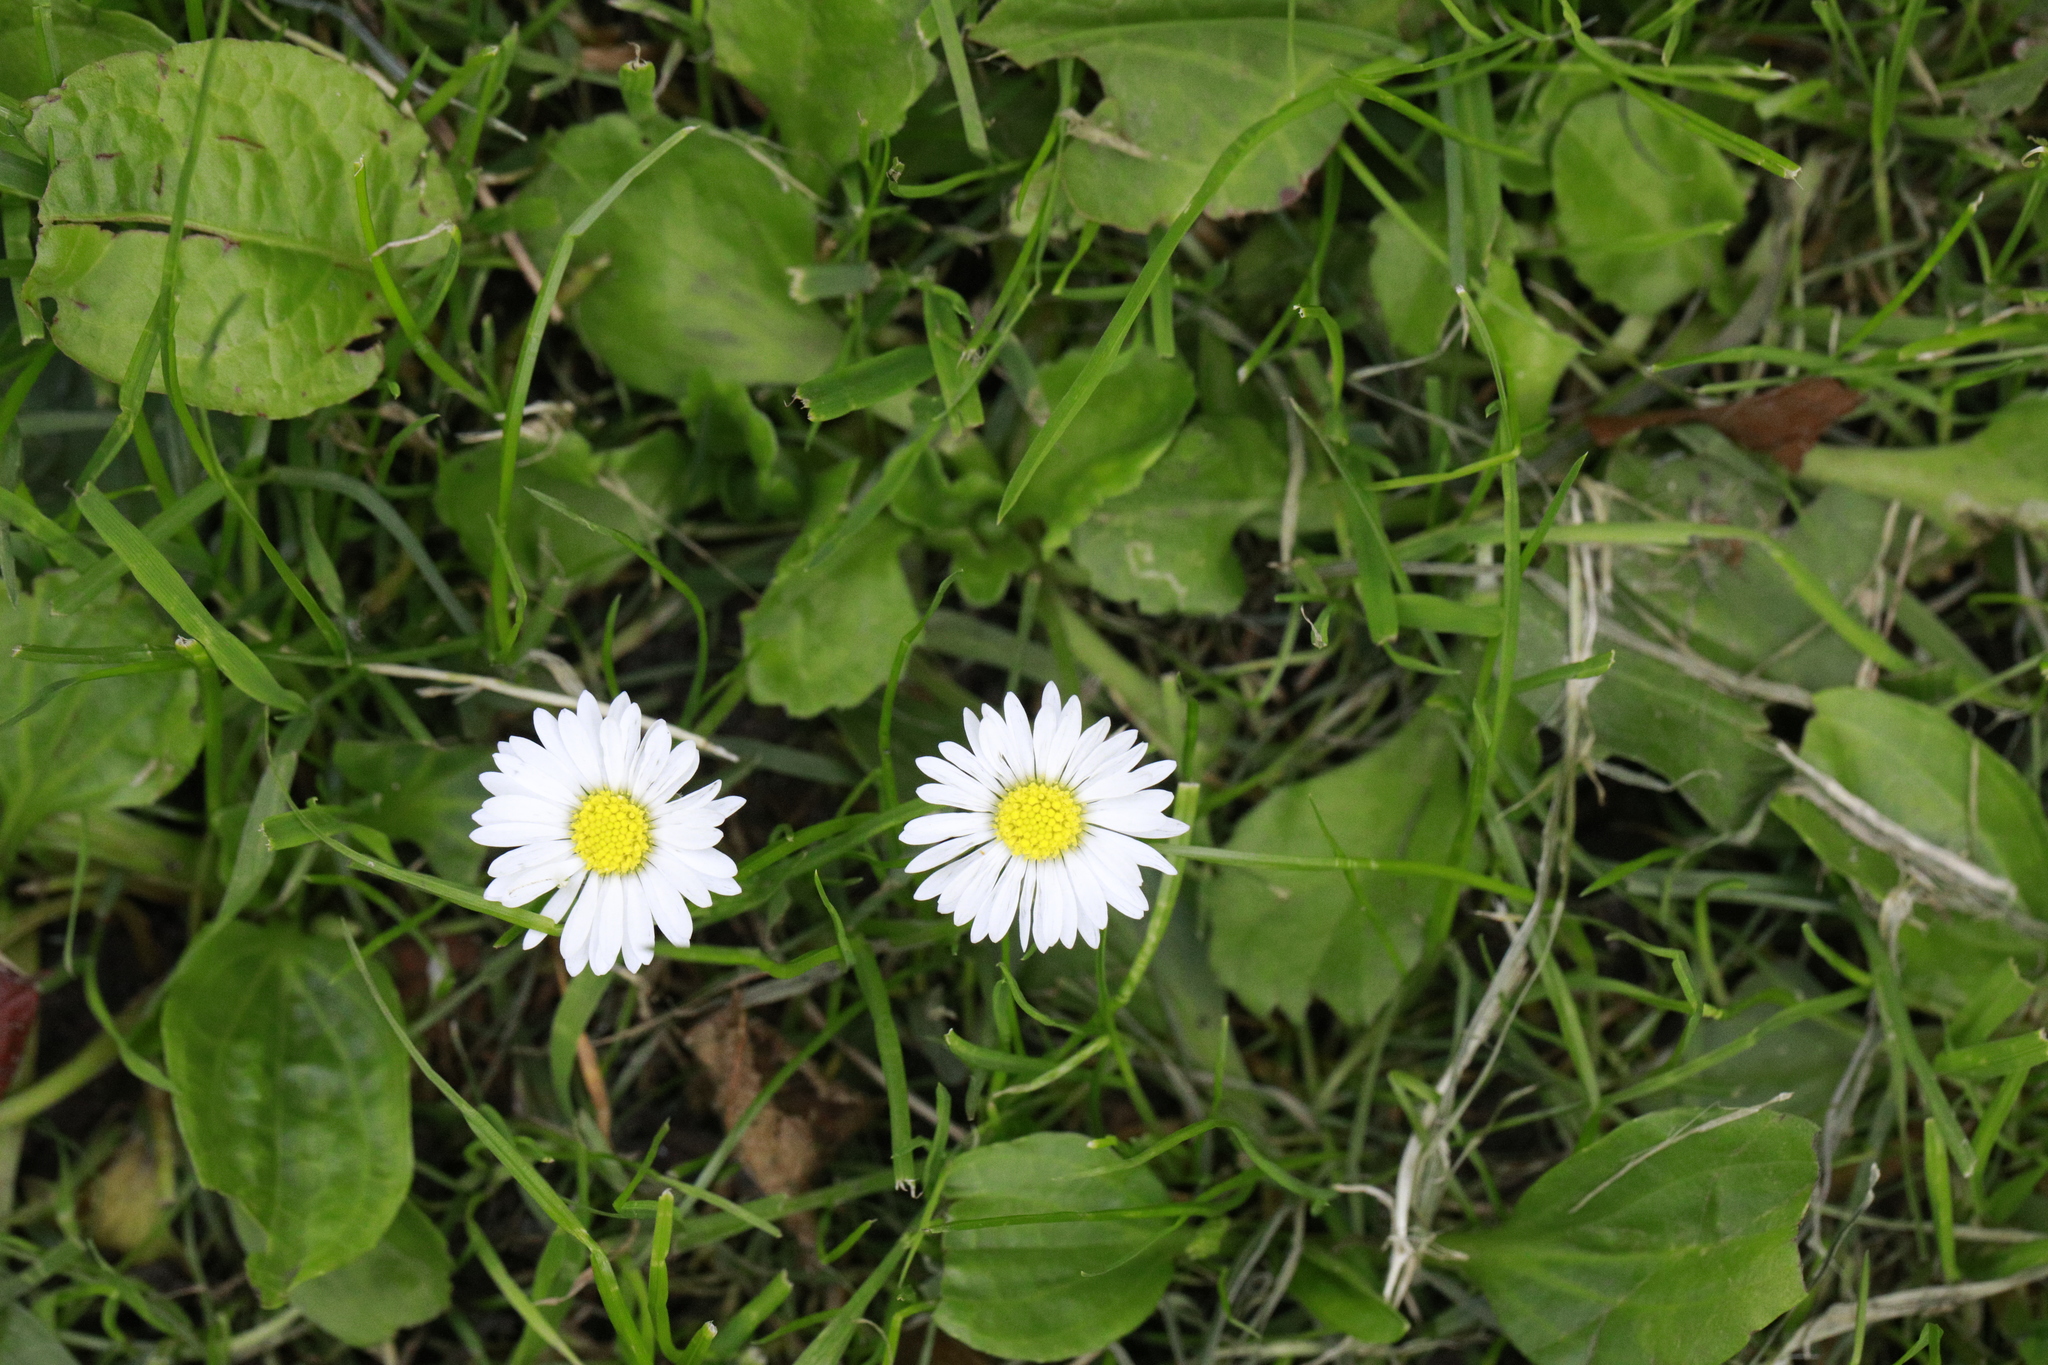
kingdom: Plantae
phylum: Tracheophyta
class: Magnoliopsida
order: Asterales
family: Asteraceae
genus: Bellis
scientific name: Bellis perennis
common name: Lawndaisy
